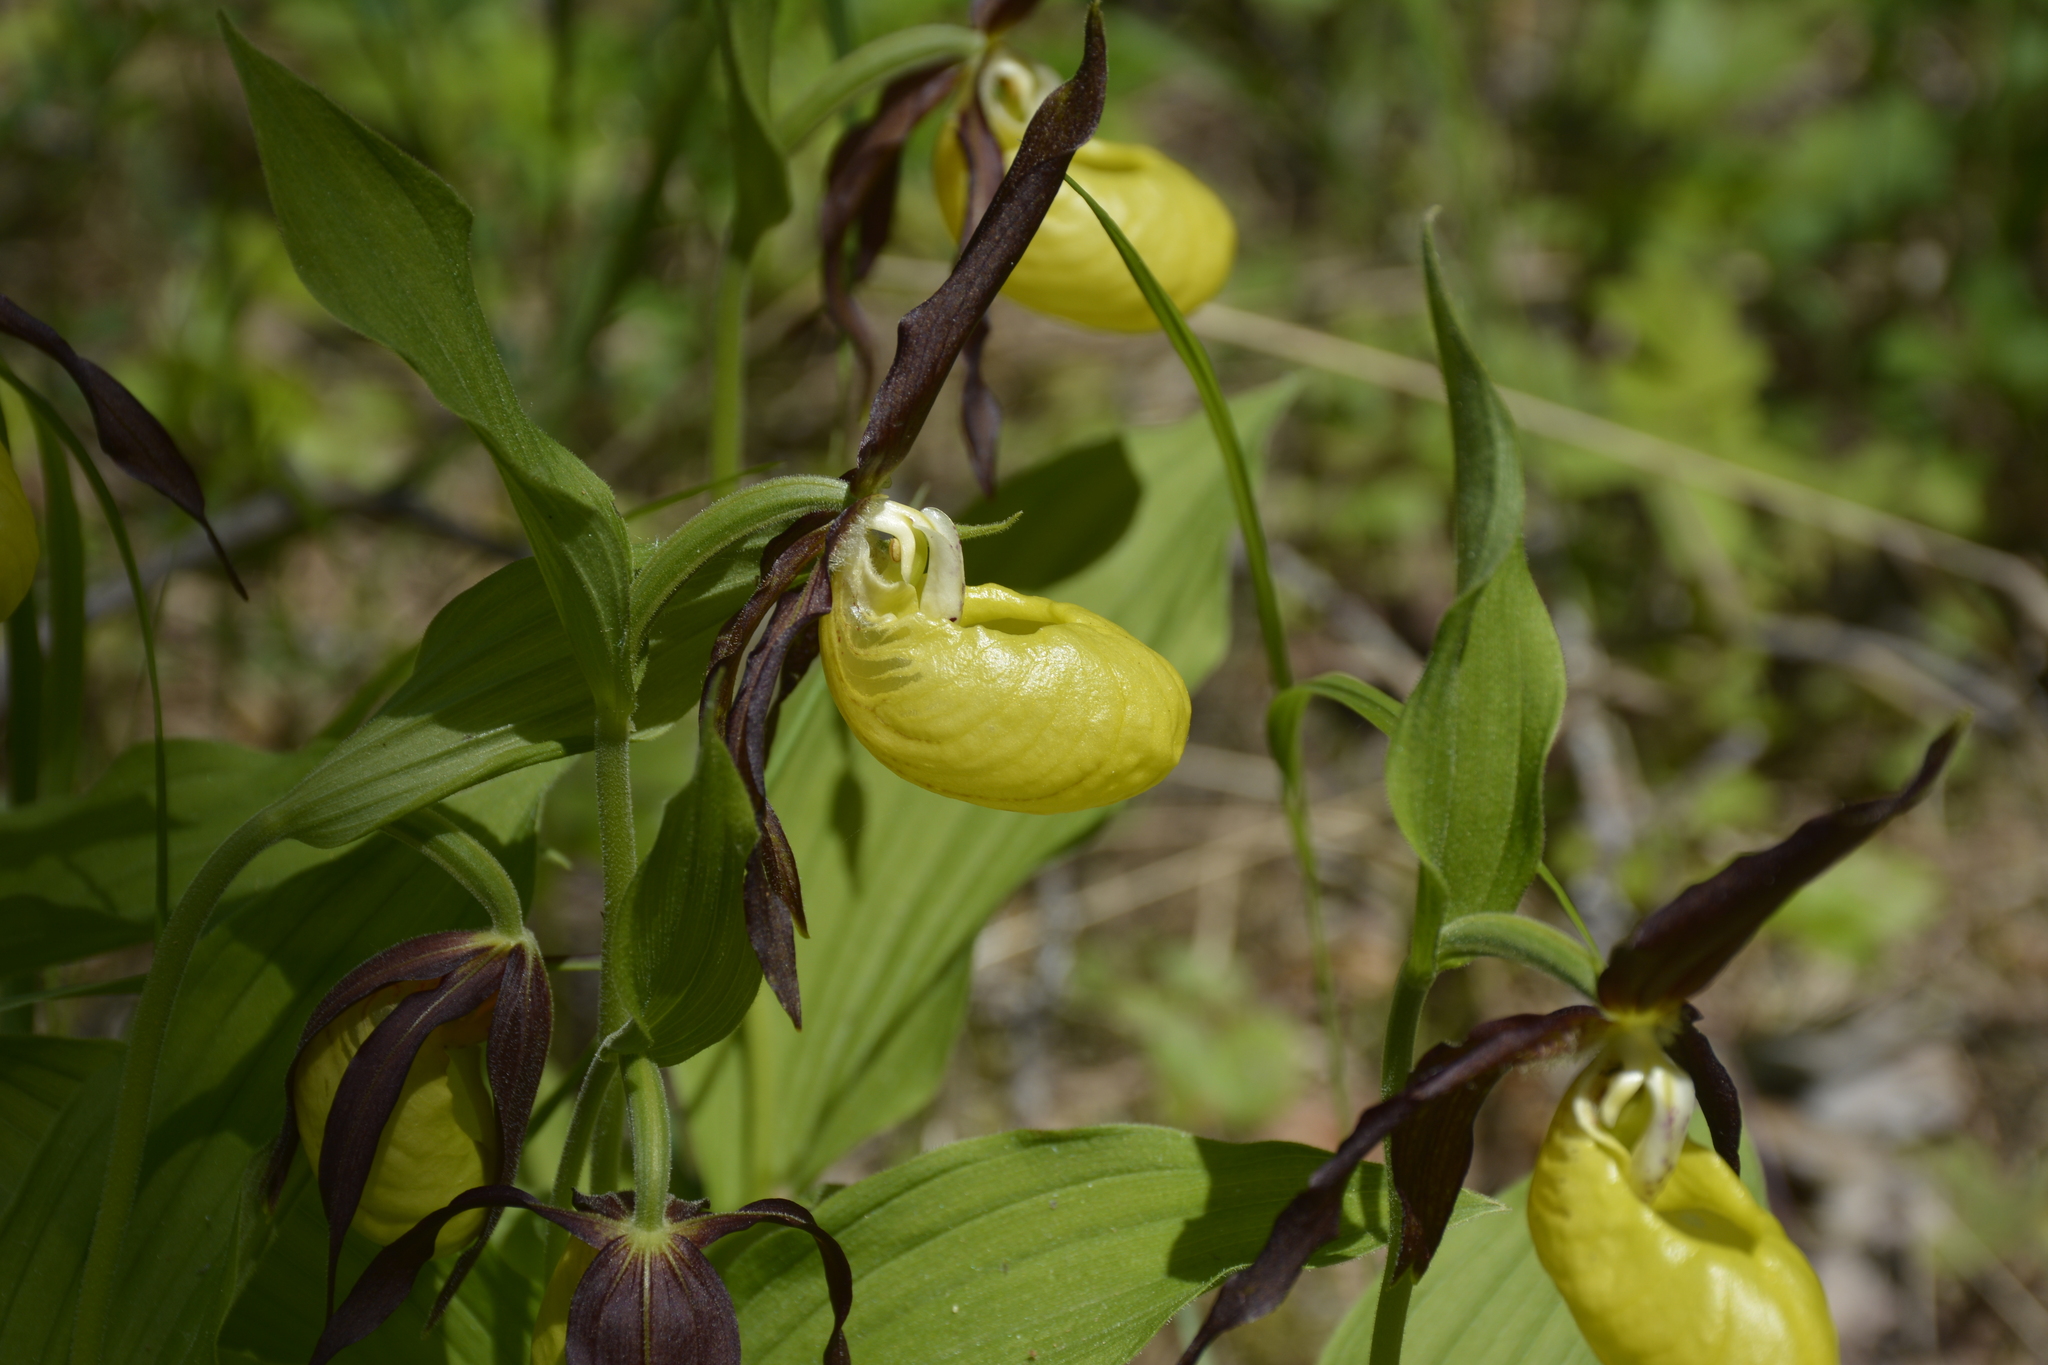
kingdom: Plantae
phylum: Tracheophyta
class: Liliopsida
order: Asparagales
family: Orchidaceae
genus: Cypripedium
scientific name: Cypripedium calceolus
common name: Lady's-slipper
